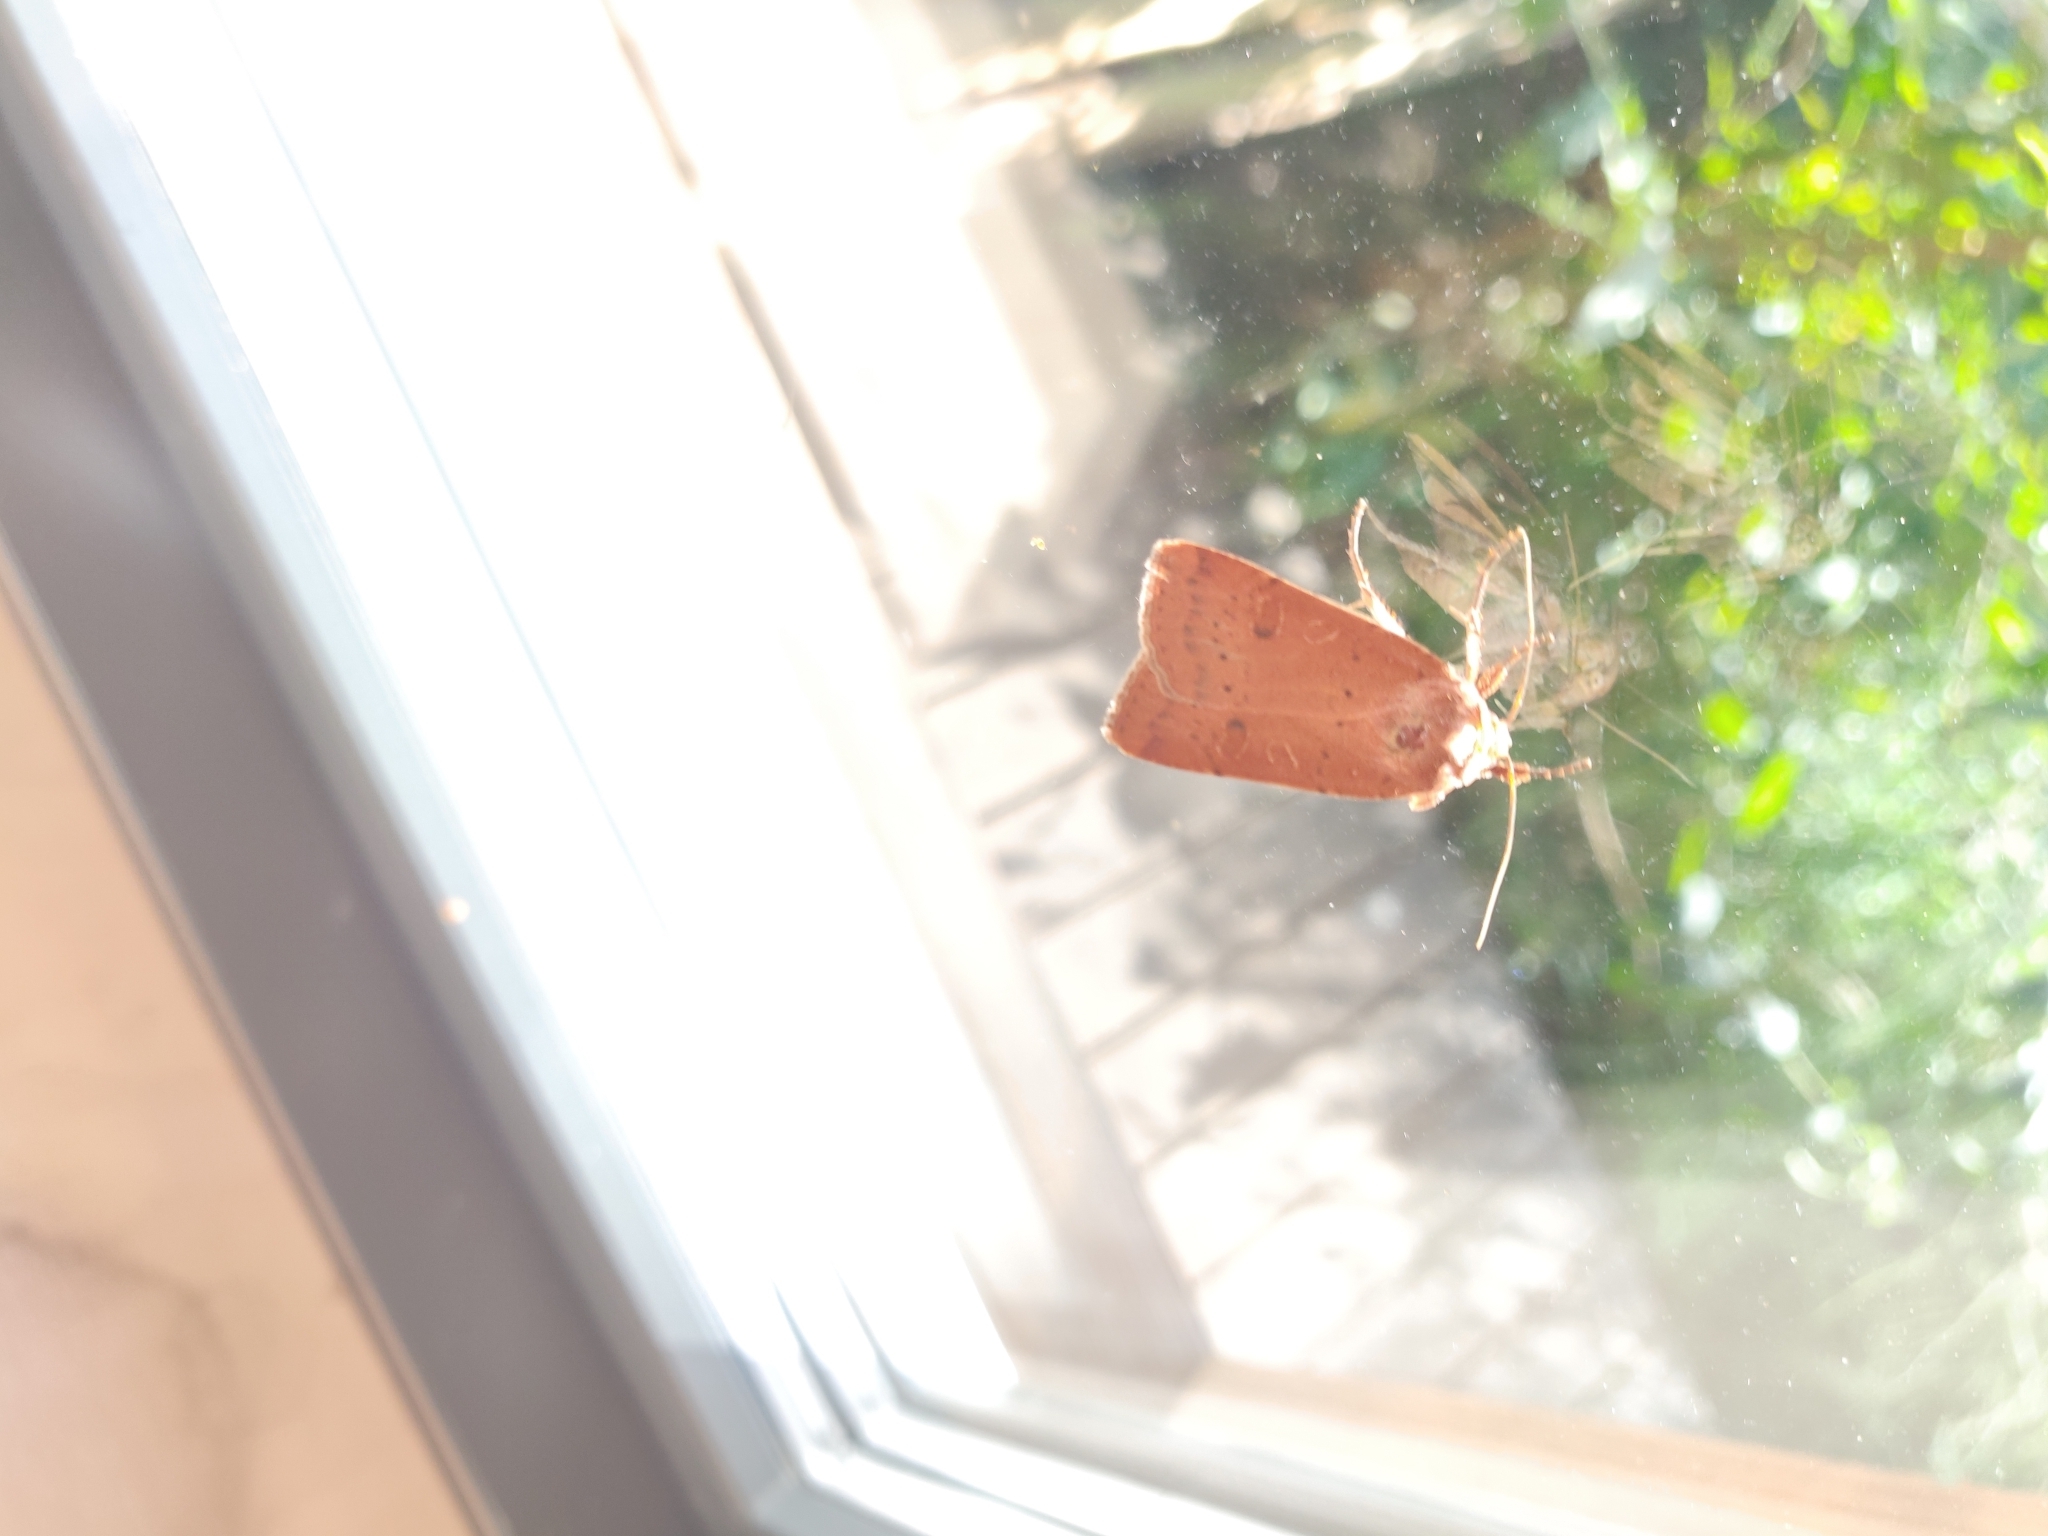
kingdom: Animalia
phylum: Arthropoda
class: Insecta
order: Lepidoptera
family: Noctuidae
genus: Noctua
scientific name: Noctua comes
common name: Lesser yellow underwing
